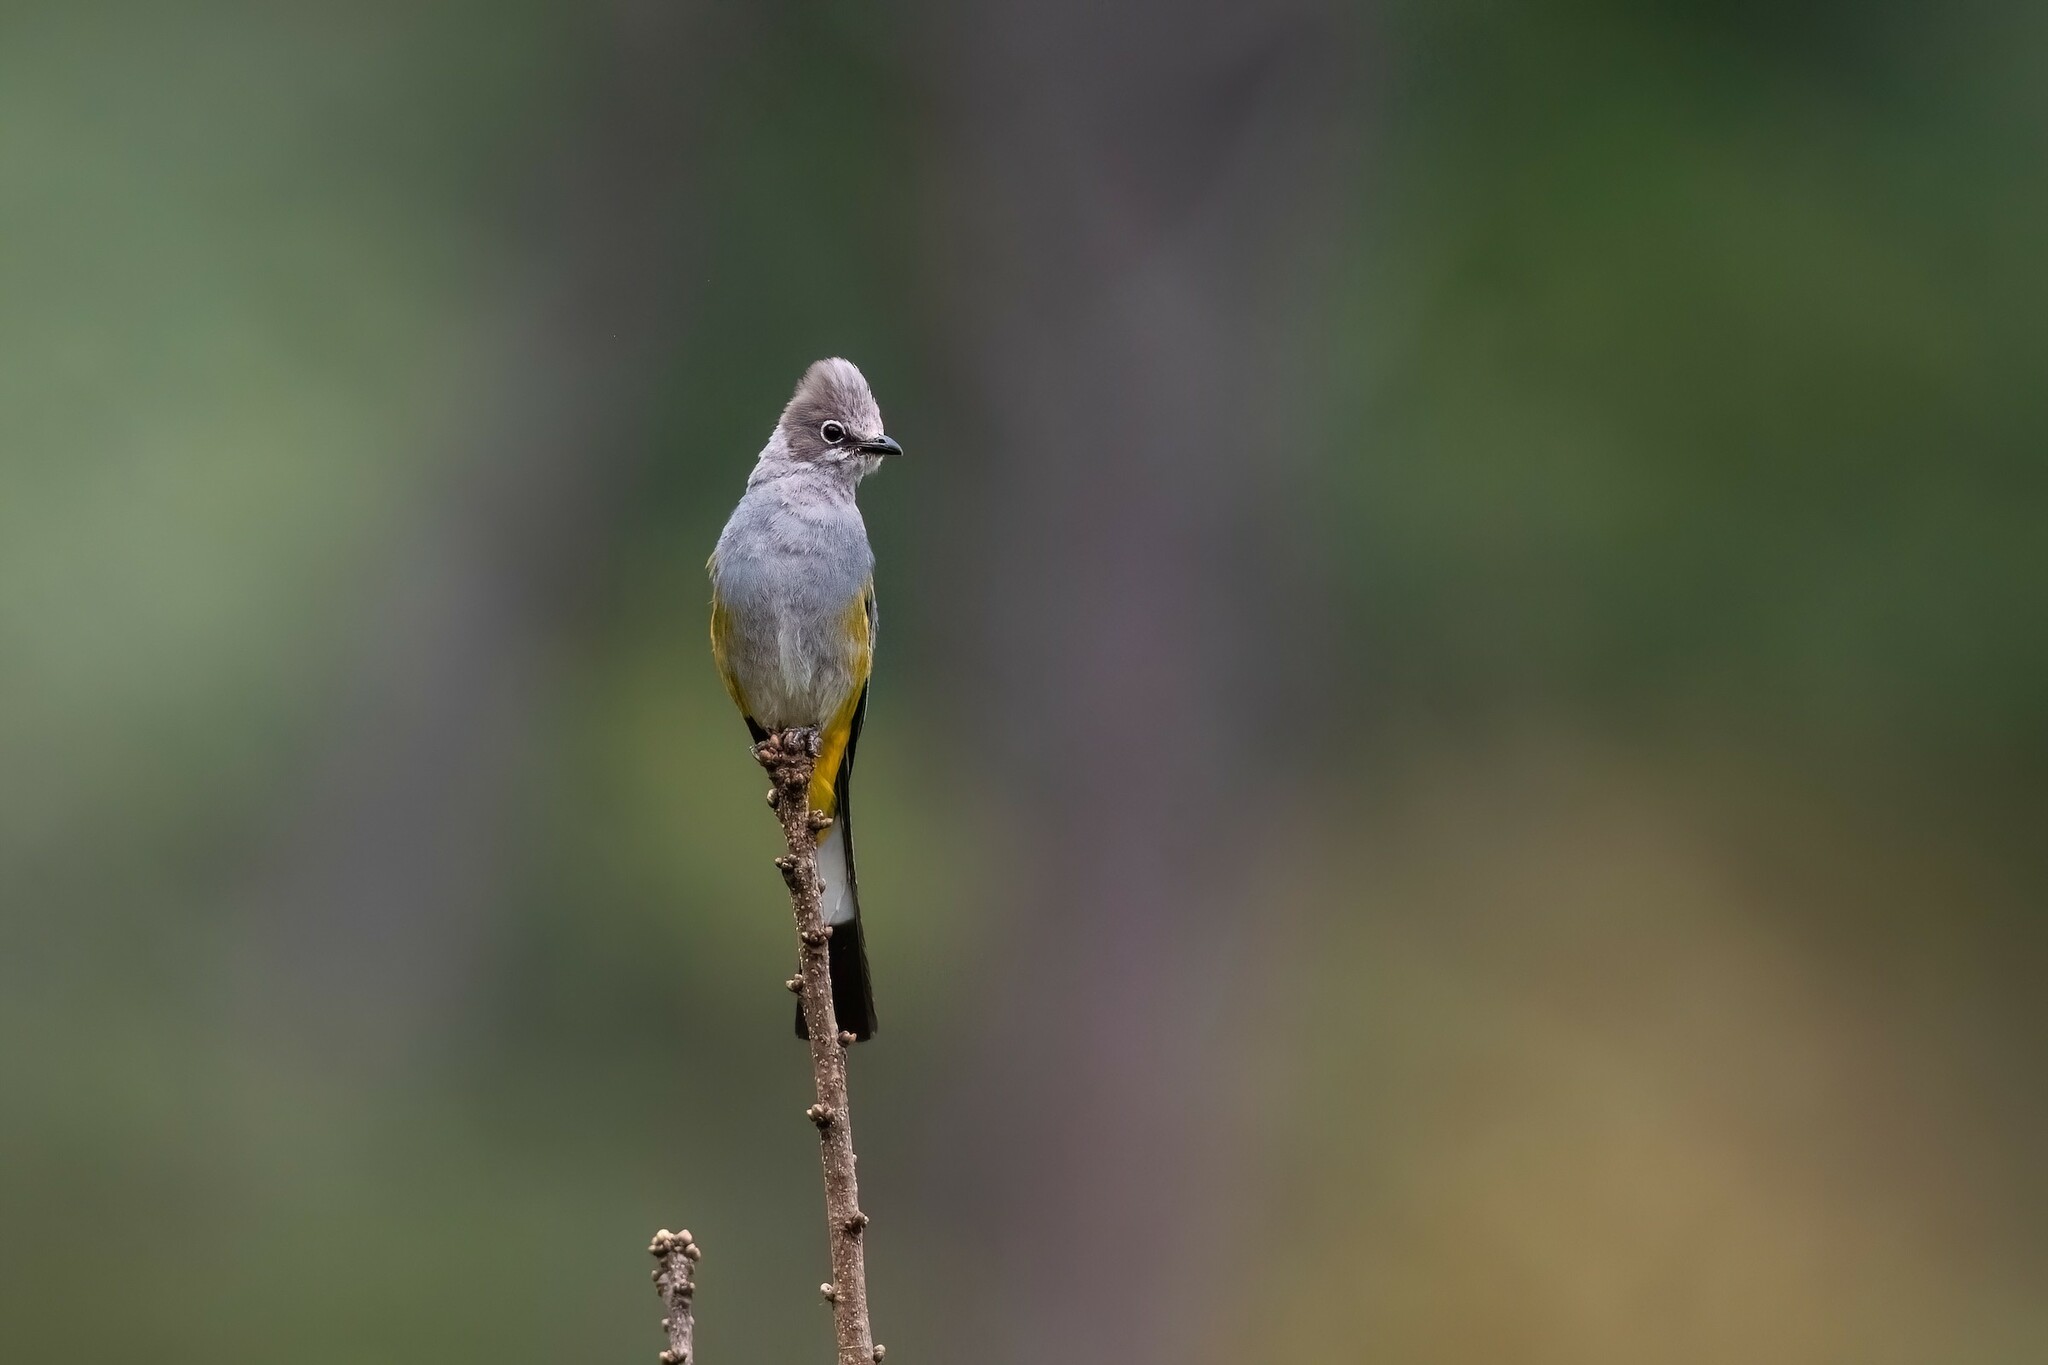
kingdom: Animalia
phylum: Chordata
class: Aves
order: Passeriformes
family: Ptilogonatidae
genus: Ptilogonys
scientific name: Ptilogonys cinereus
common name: Gray silky-flycatcher
